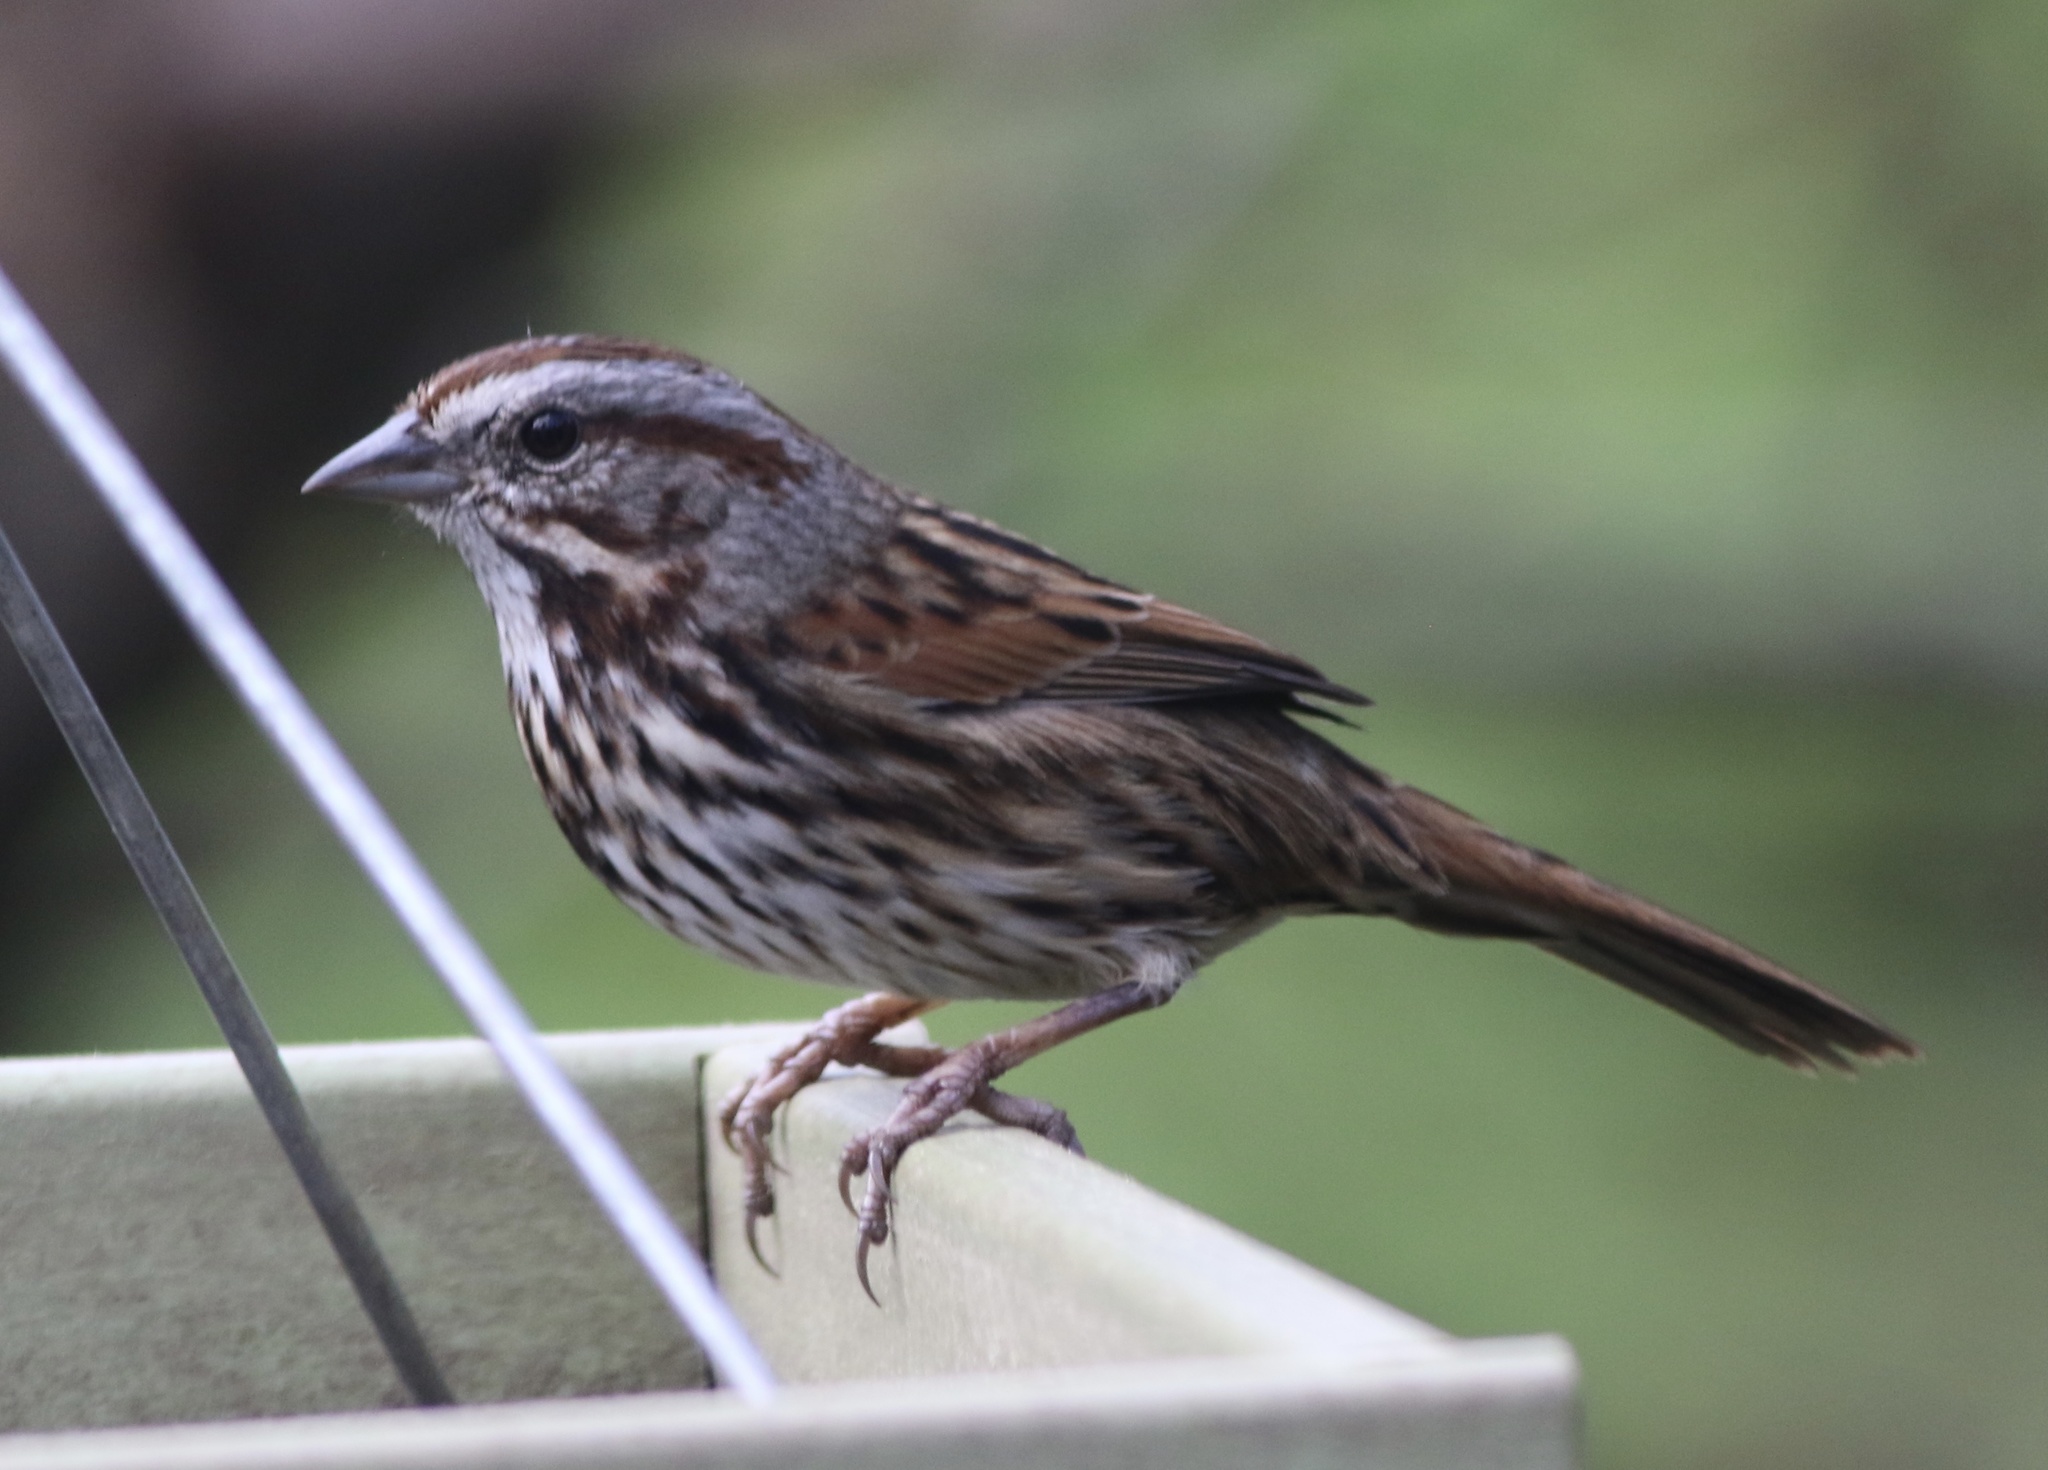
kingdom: Animalia
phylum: Chordata
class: Aves
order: Passeriformes
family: Passerellidae
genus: Melospiza
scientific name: Melospiza melodia
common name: Song sparrow
